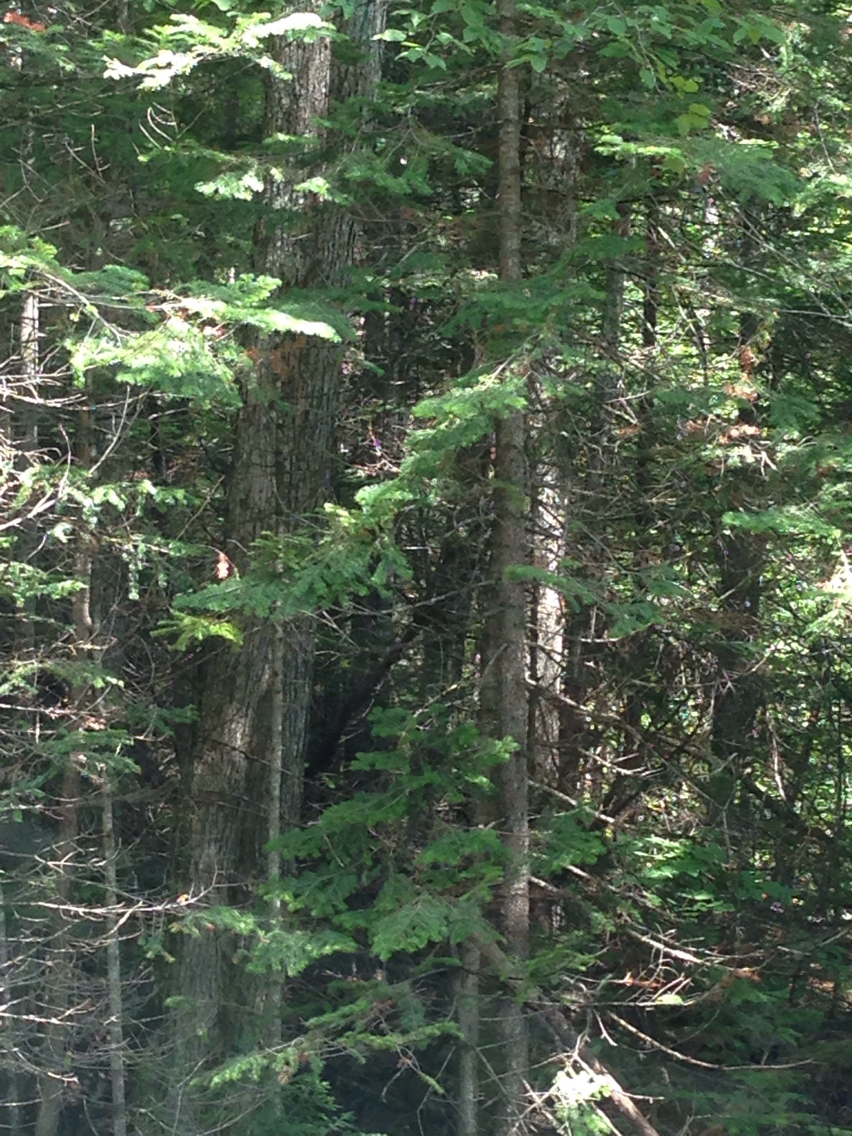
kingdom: Plantae
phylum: Tracheophyta
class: Pinopsida
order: Pinales
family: Pinaceae
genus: Abies
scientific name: Abies balsamea
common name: Balsam fir
